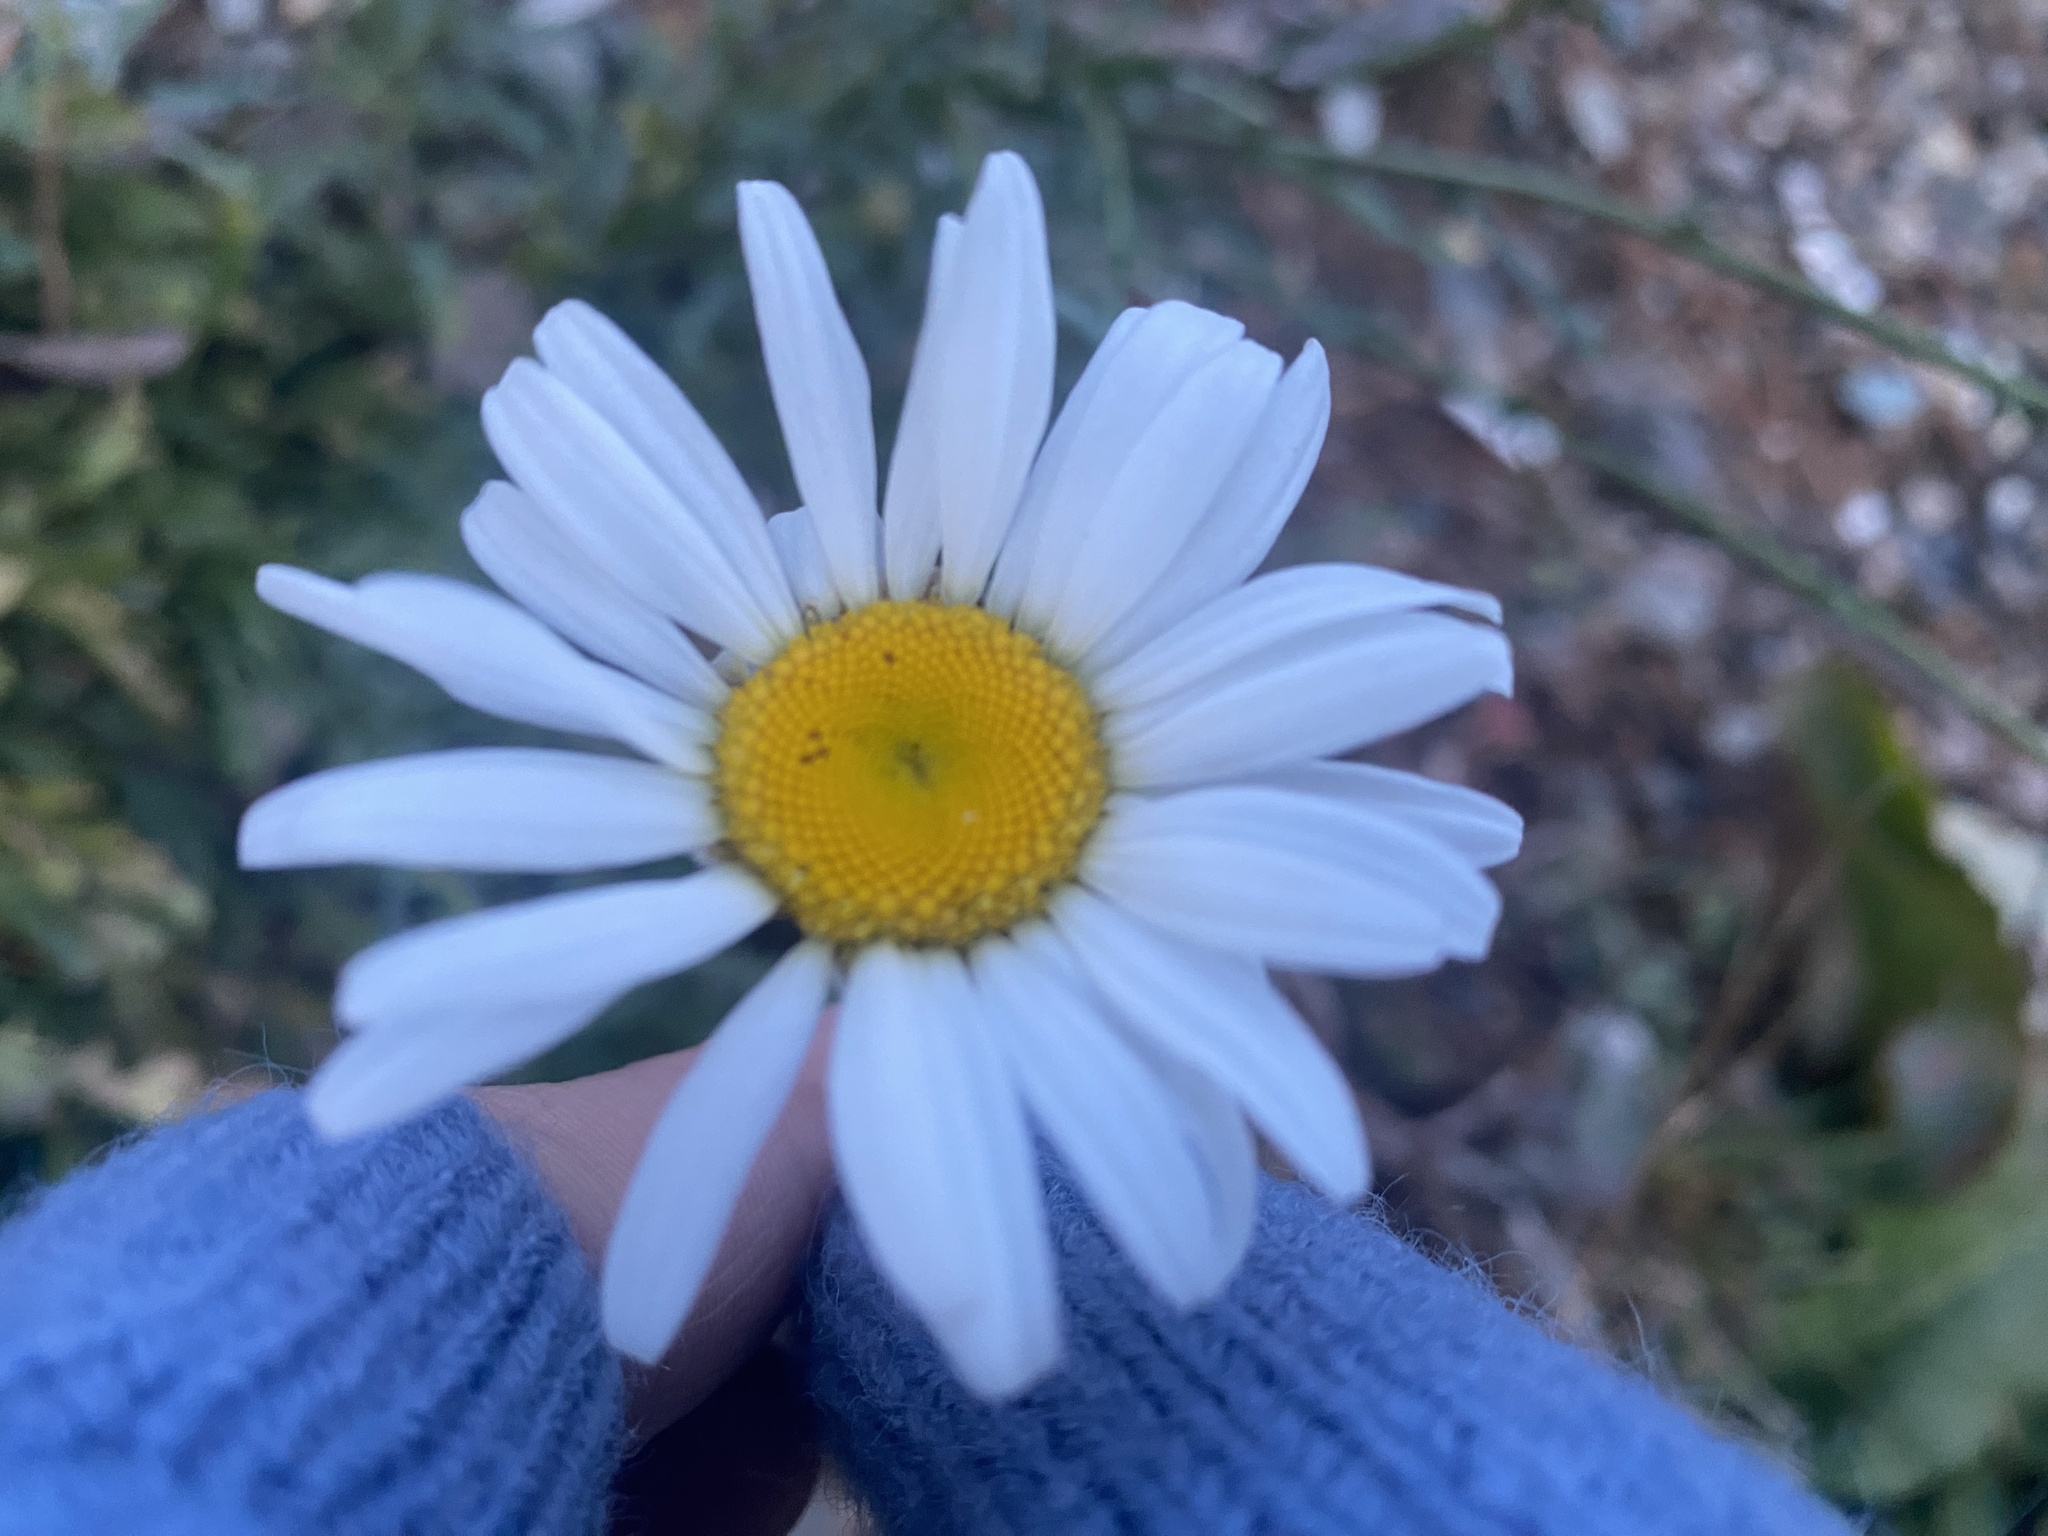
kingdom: Plantae
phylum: Tracheophyta
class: Magnoliopsida
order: Asterales
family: Asteraceae
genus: Leucanthemum
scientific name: Leucanthemum vulgare
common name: Oxeye daisy
